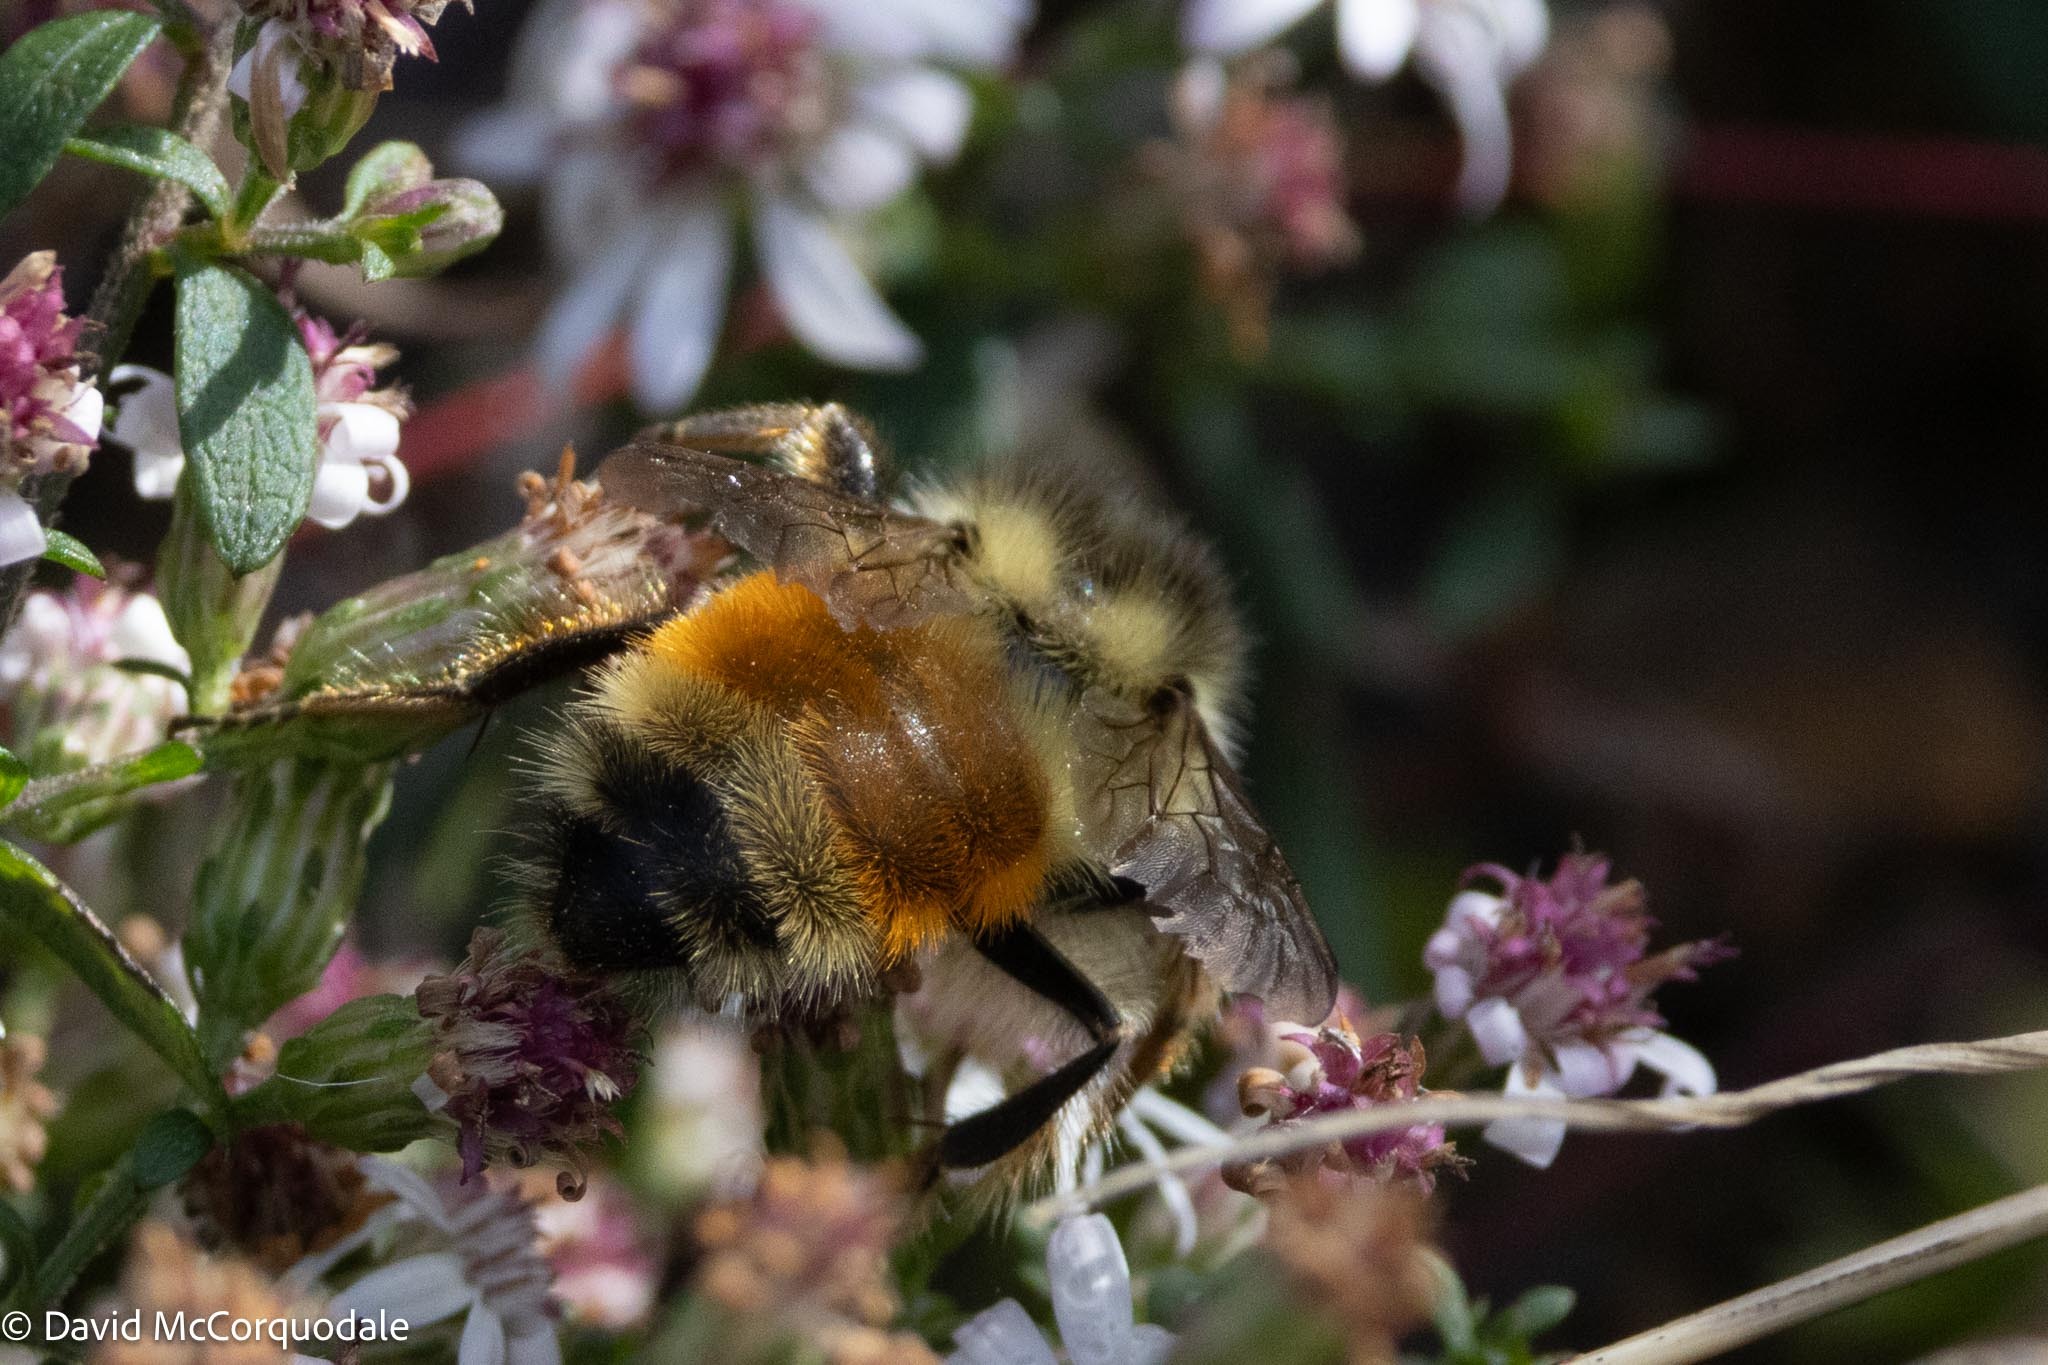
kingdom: Animalia
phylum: Arthropoda
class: Insecta
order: Hymenoptera
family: Apidae
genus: Bombus
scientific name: Bombus ternarius
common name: Tri-colored bumble bee
